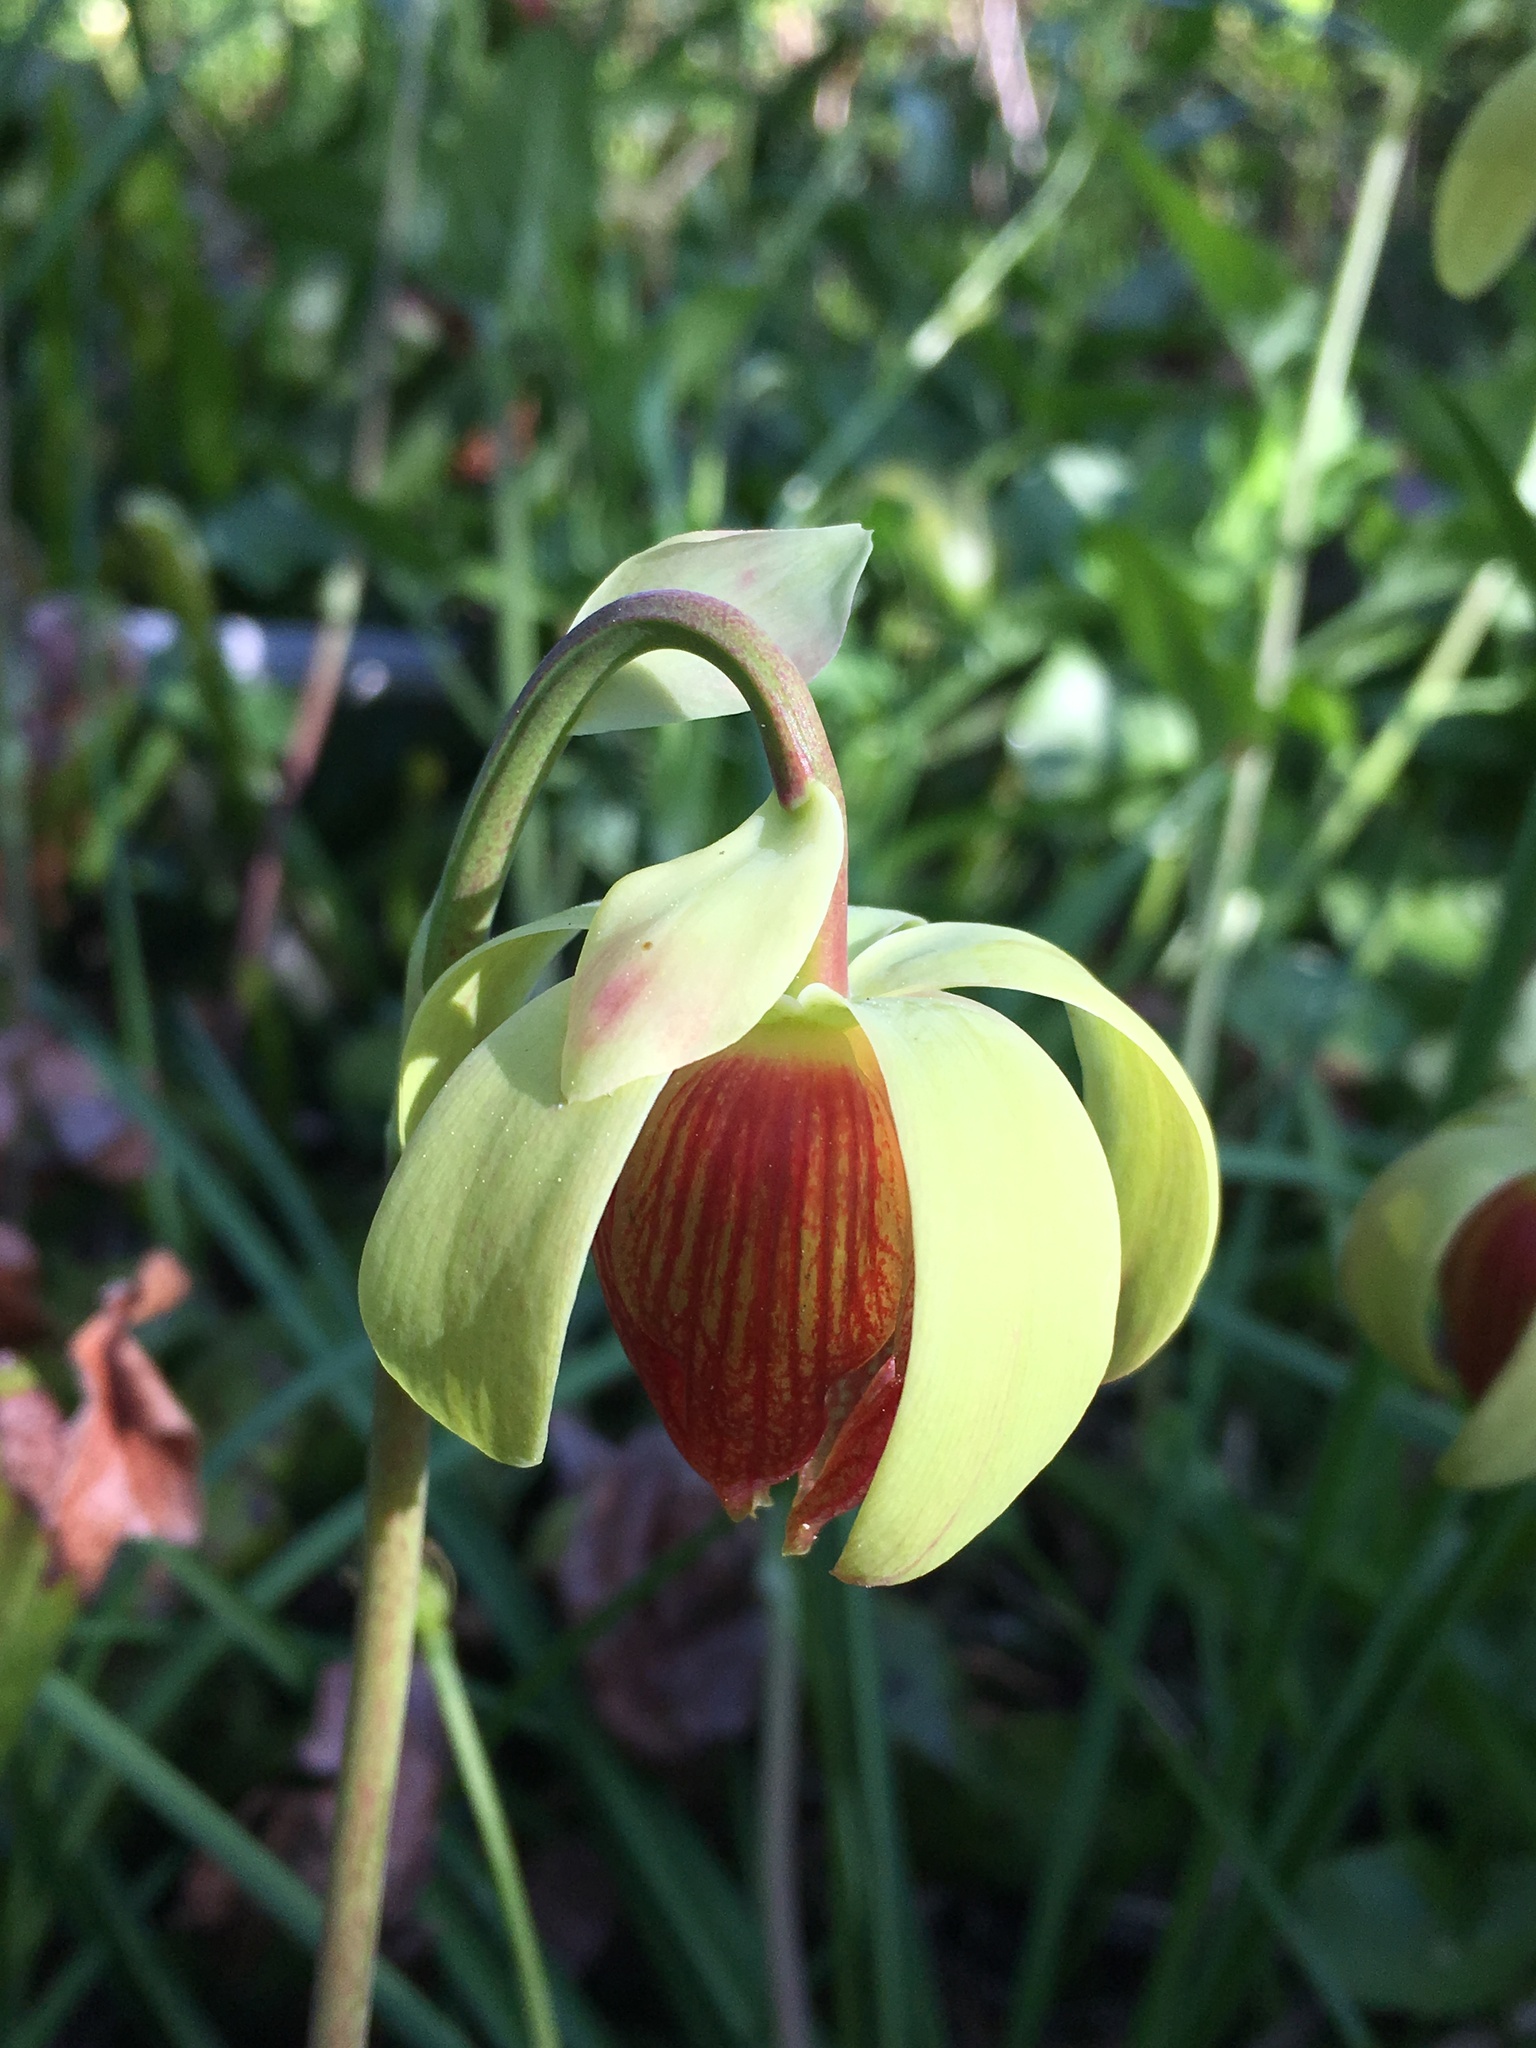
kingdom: Plantae
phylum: Tracheophyta
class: Magnoliopsida
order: Ericales
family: Sarraceniaceae
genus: Darlingtonia
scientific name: Darlingtonia californica
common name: California pitcher plant
